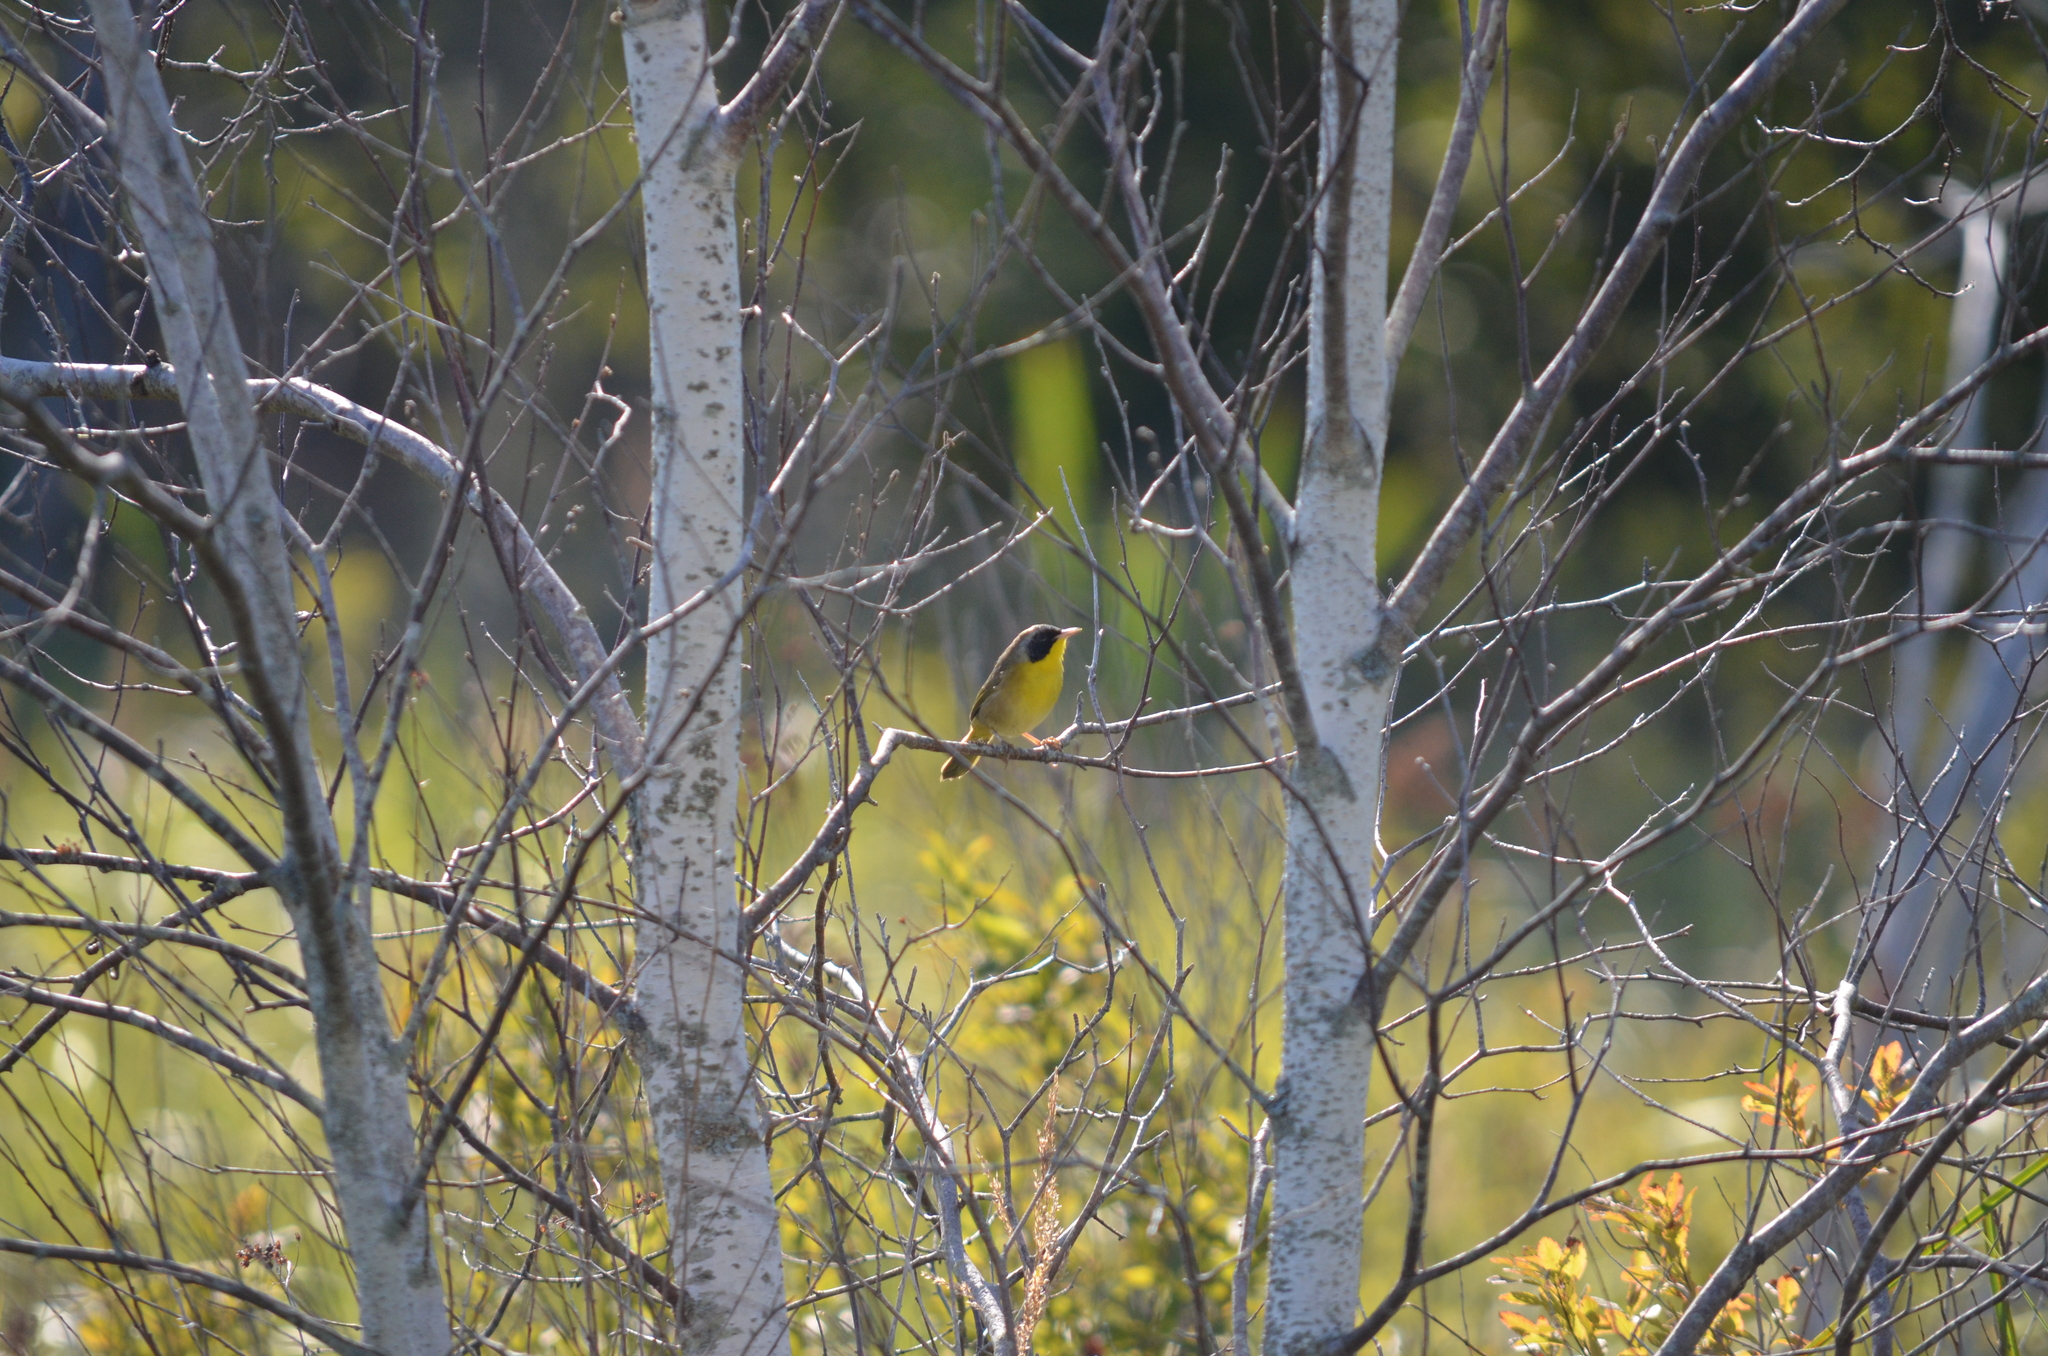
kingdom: Animalia
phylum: Chordata
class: Aves
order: Passeriformes
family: Parulidae
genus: Geothlypis
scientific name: Geothlypis trichas
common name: Common yellowthroat
